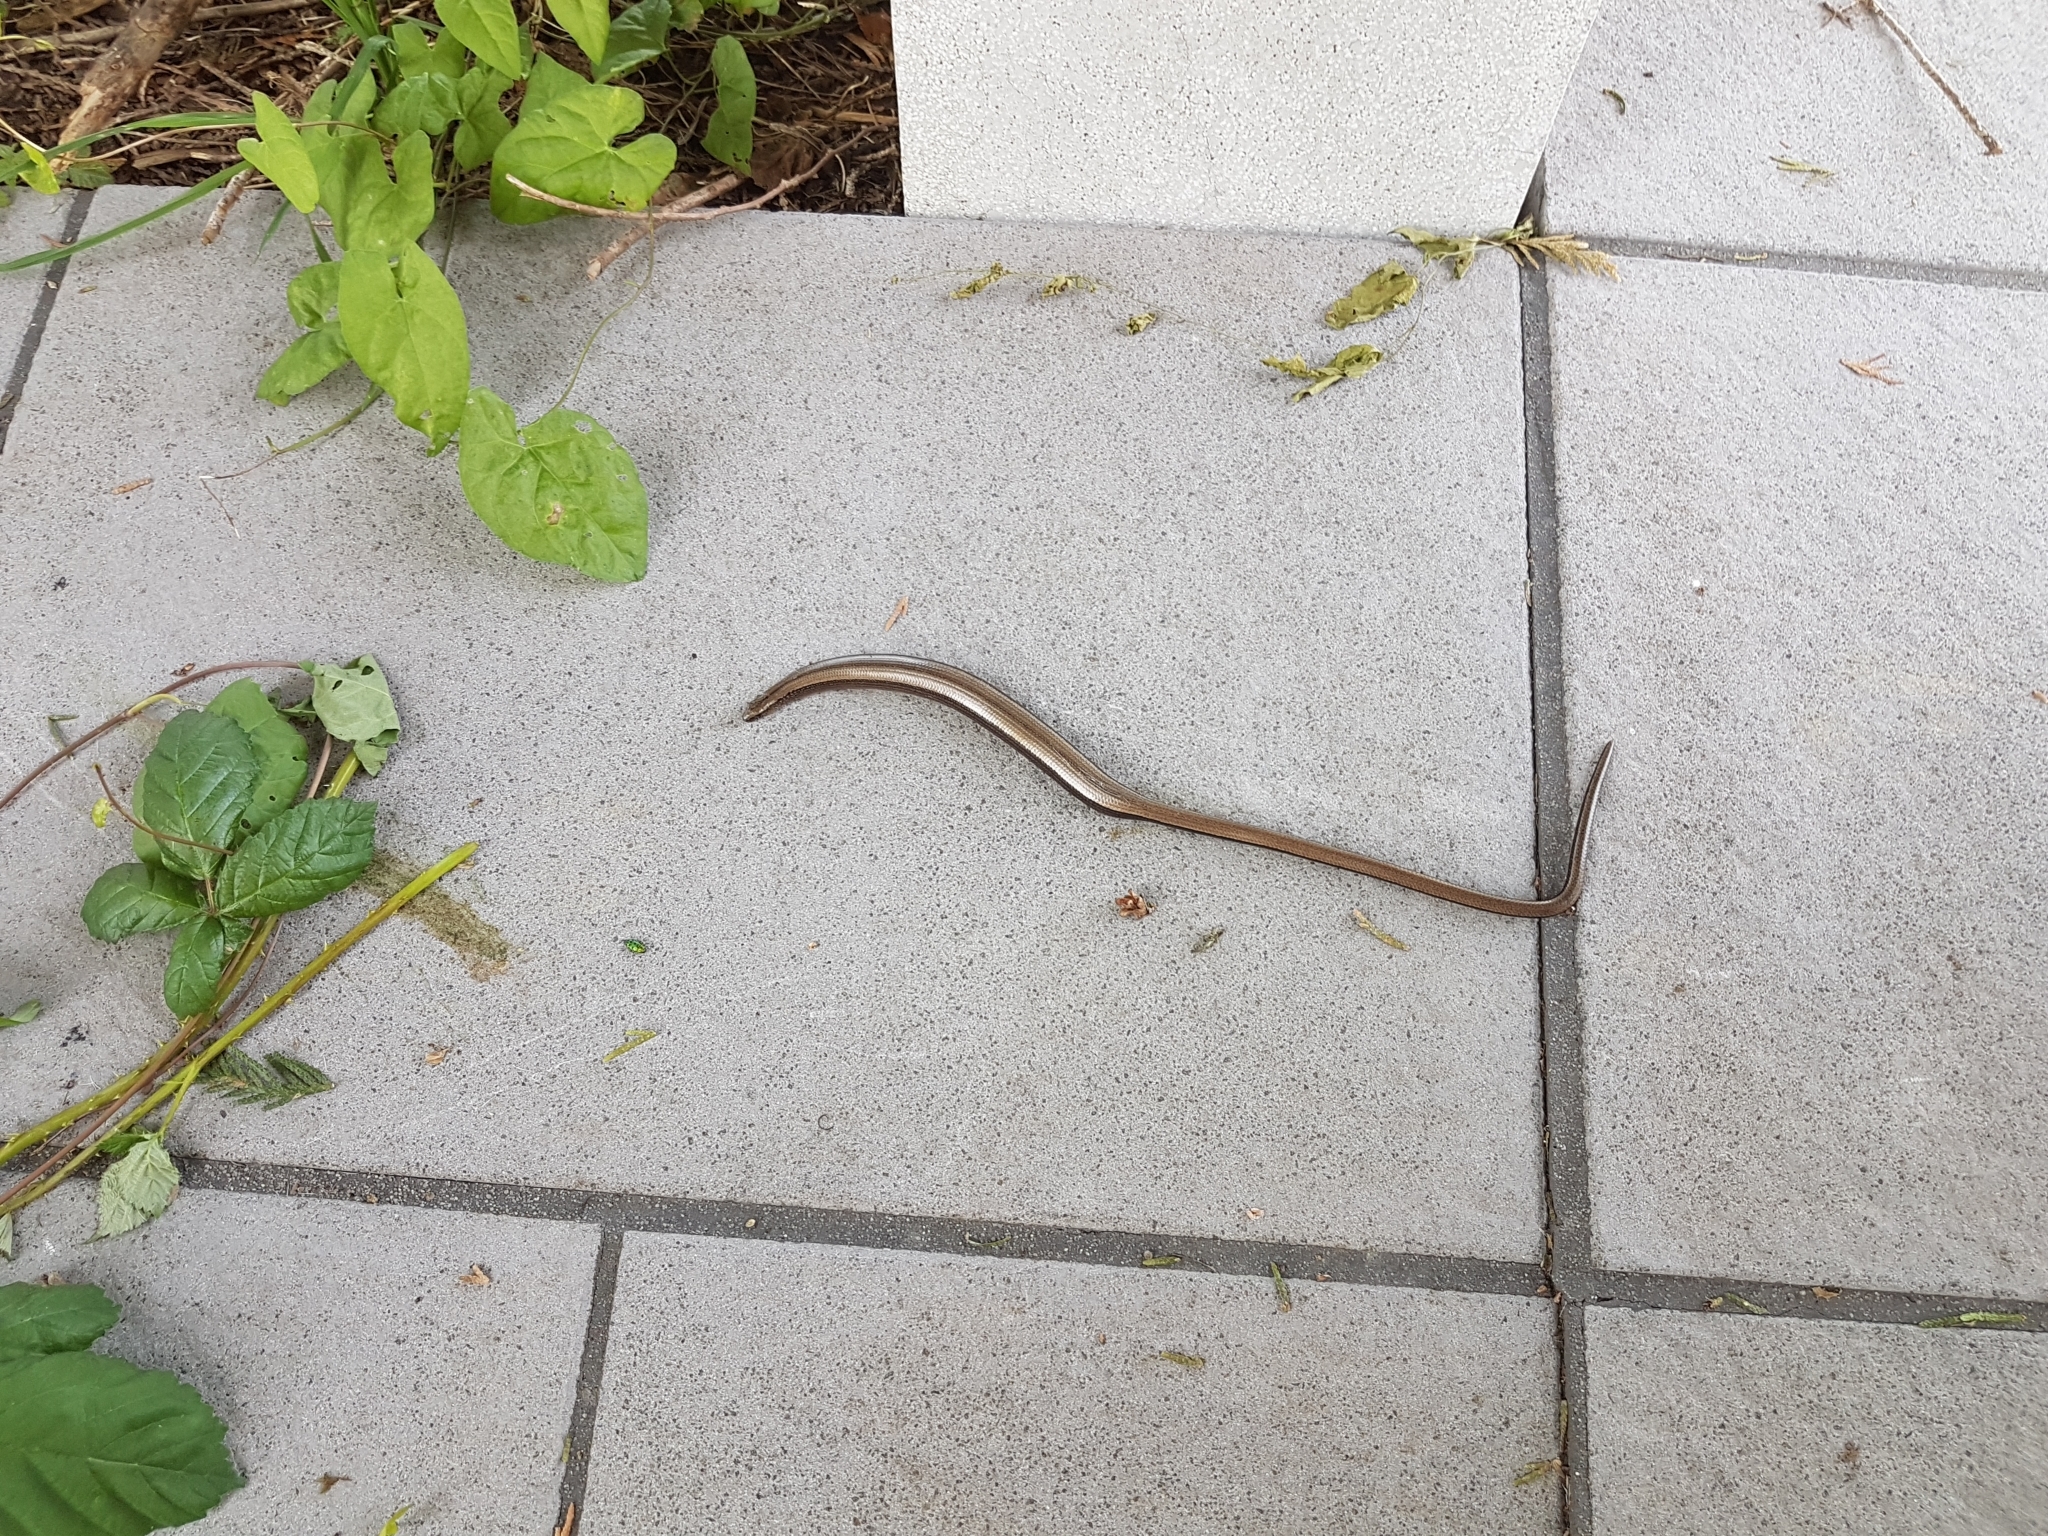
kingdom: Animalia
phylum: Chordata
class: Squamata
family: Anguidae
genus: Anguis
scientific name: Anguis fragilis
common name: Slow worm
